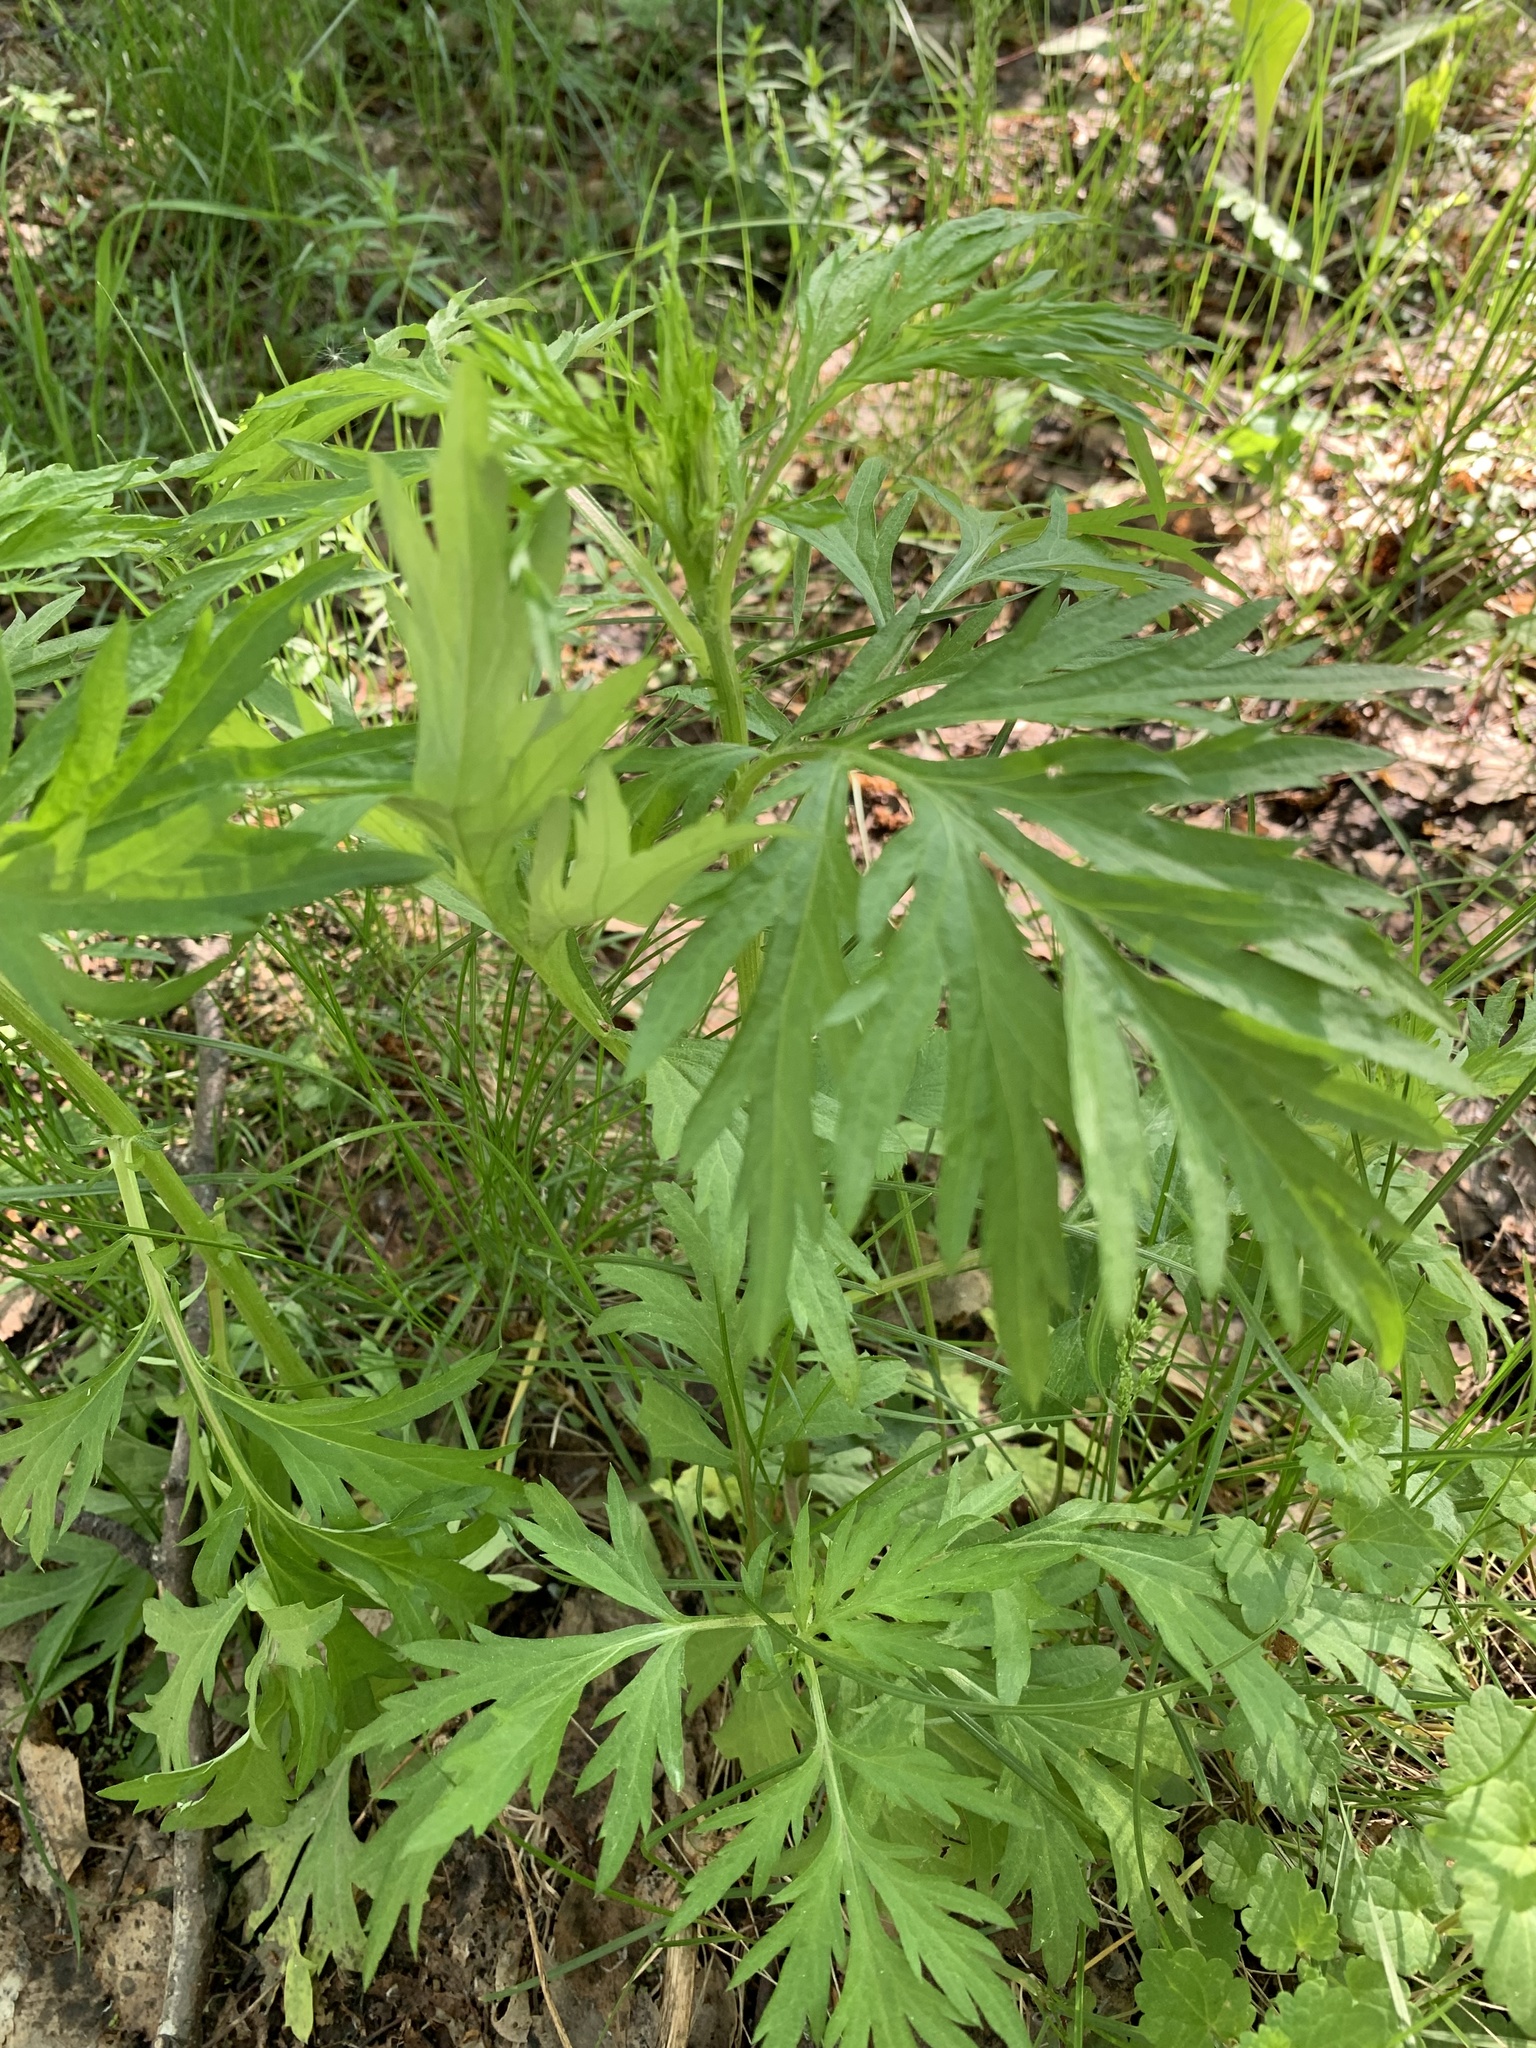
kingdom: Plantae
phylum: Tracheophyta
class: Magnoliopsida
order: Asterales
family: Asteraceae
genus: Artemisia
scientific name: Artemisia vulgaris
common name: Mugwort
